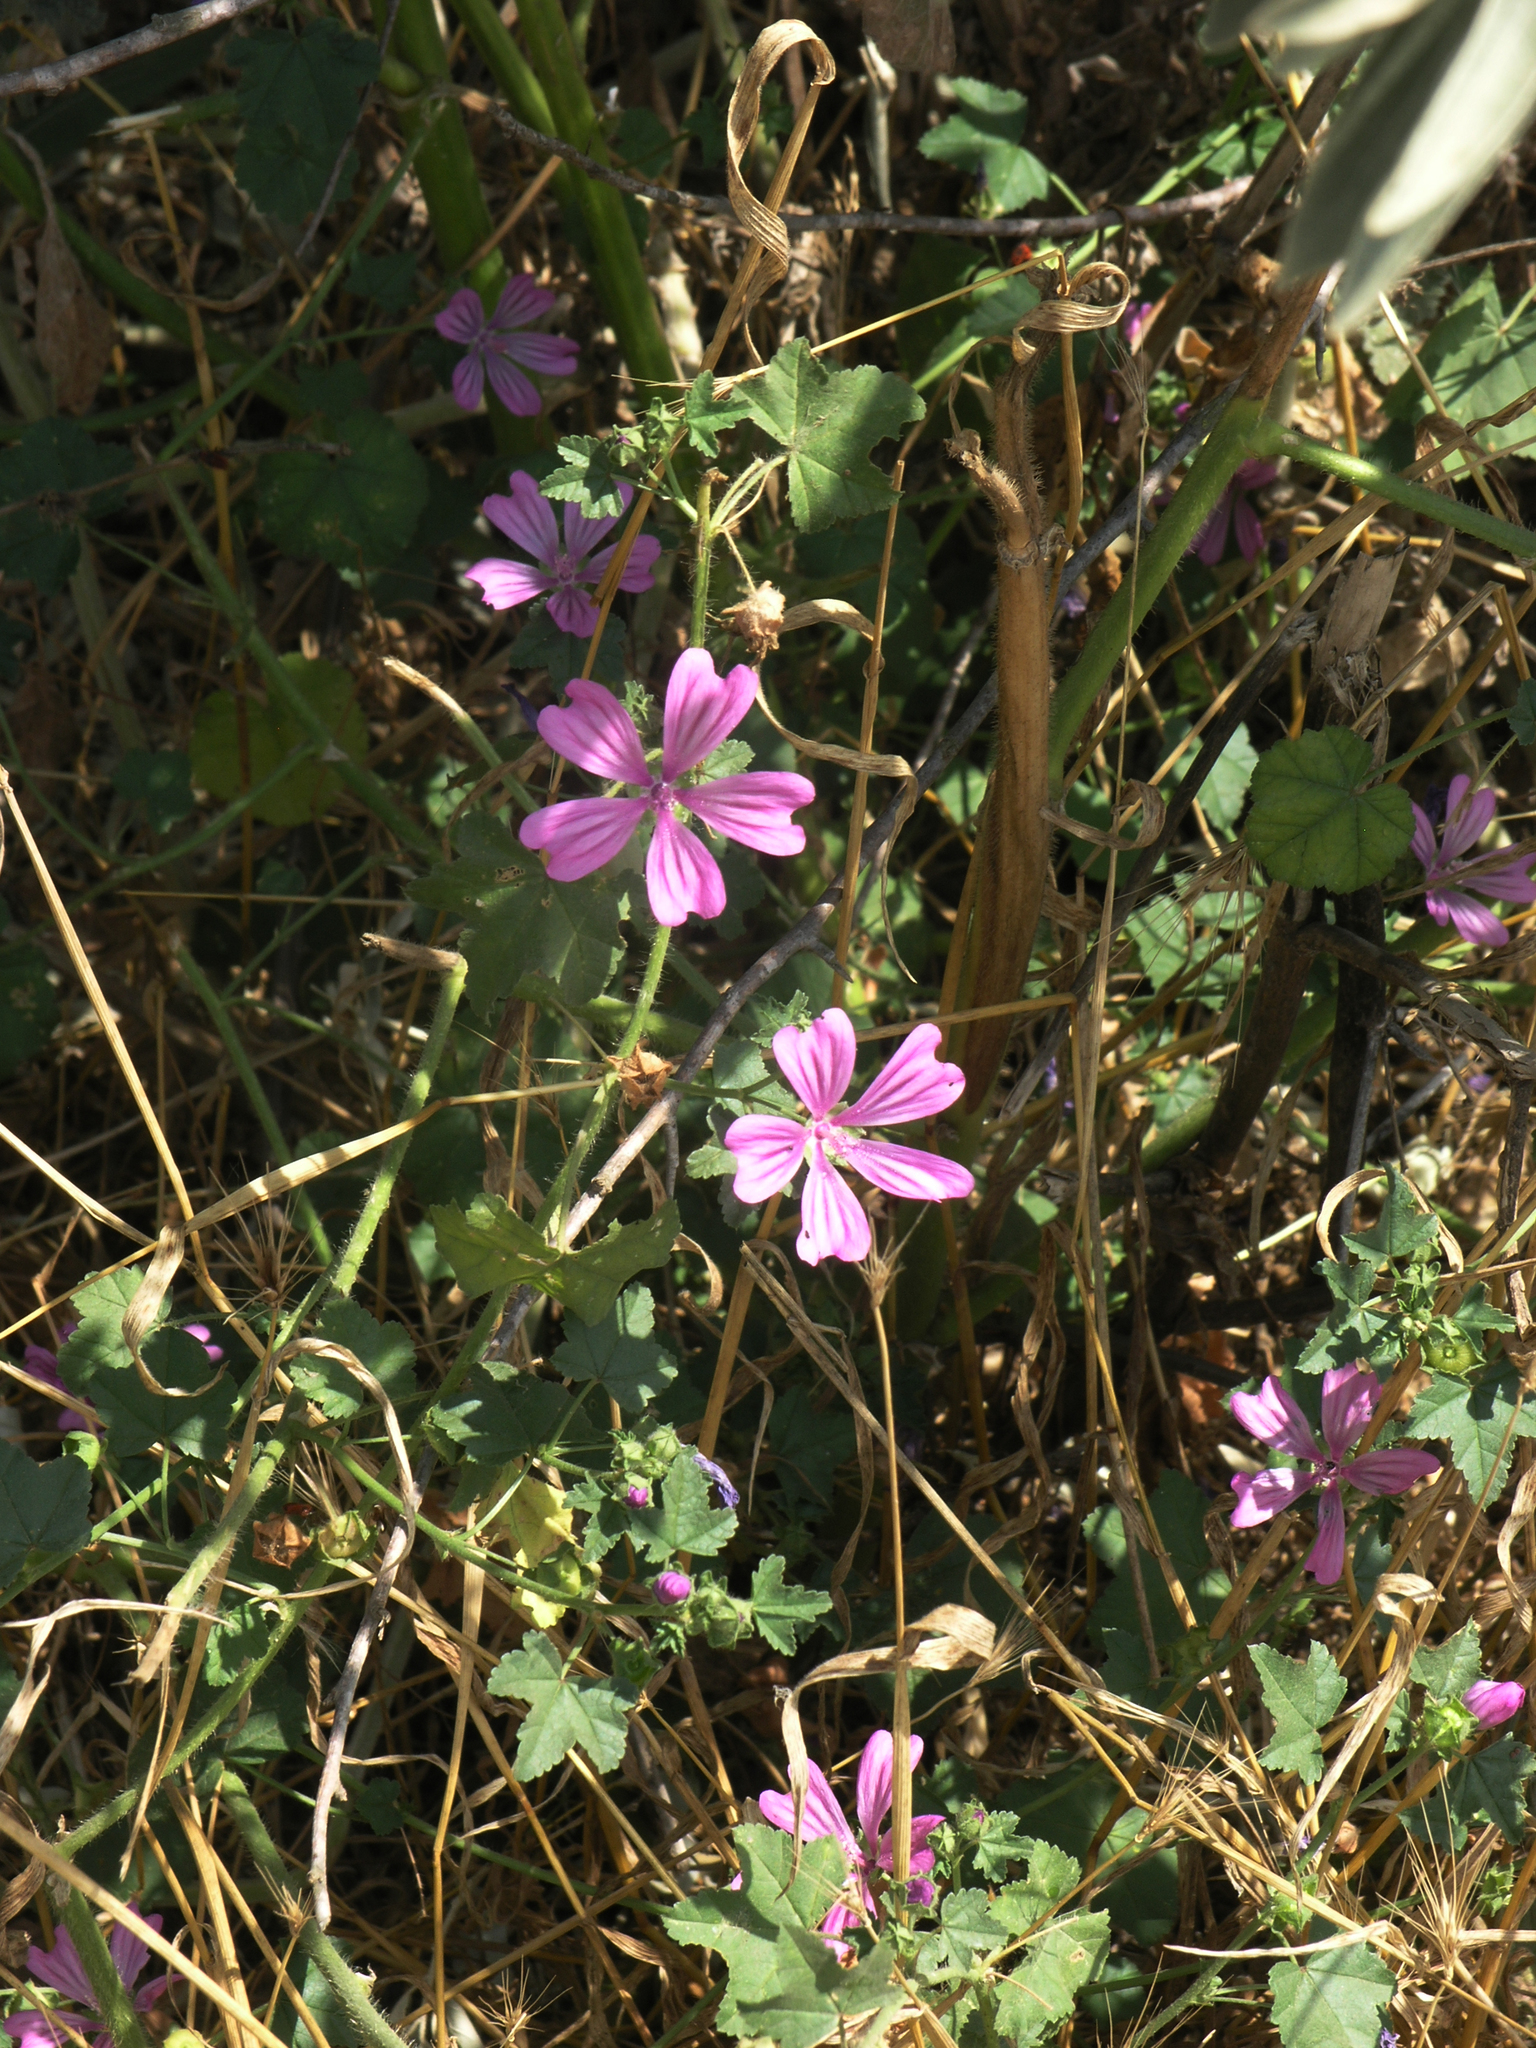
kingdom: Plantae
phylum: Tracheophyta
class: Magnoliopsida
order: Malvales
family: Malvaceae
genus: Malva
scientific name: Malva sylvestris
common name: Common mallow
